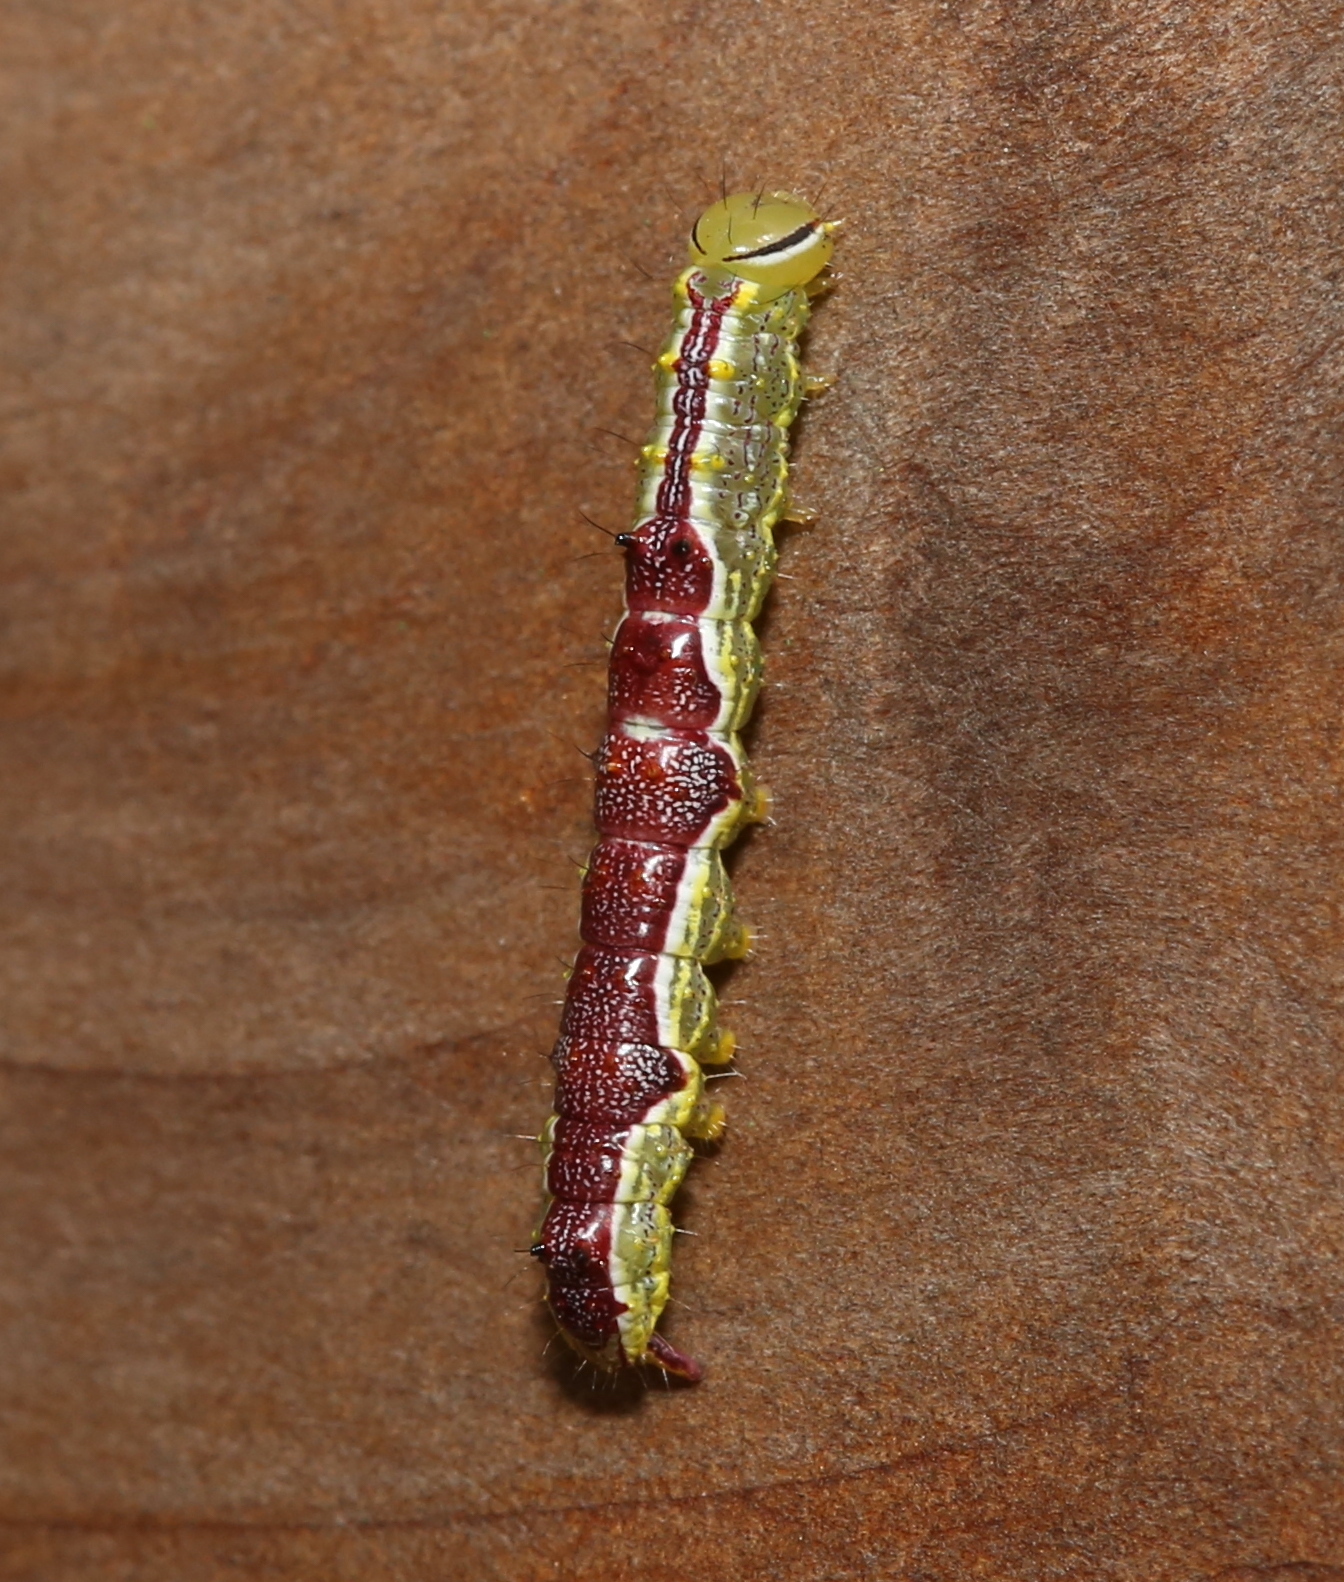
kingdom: Animalia
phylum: Arthropoda
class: Insecta
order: Lepidoptera
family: Notodontidae
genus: Lochmaeus
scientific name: Lochmaeus bilineata
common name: Double-lined prominent
